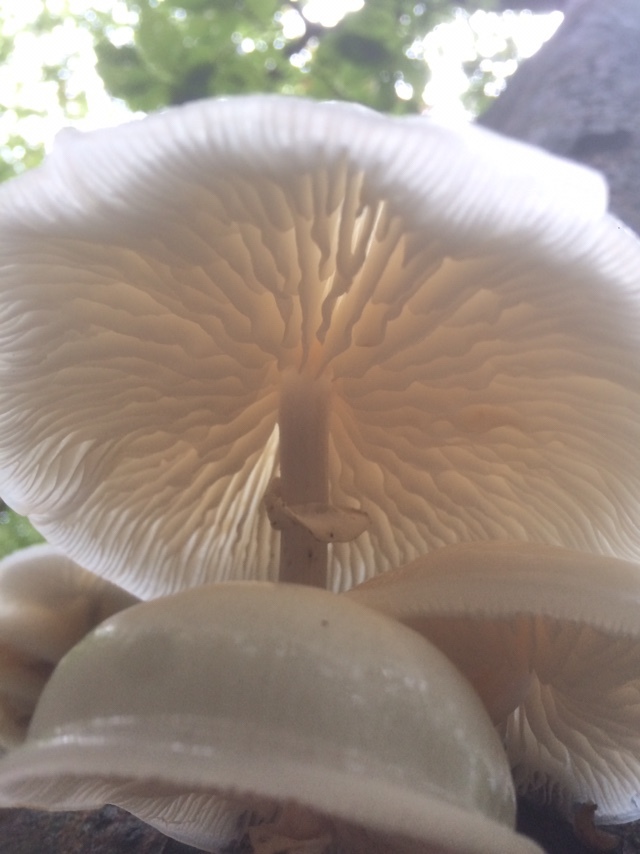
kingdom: Fungi
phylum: Basidiomycota
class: Agaricomycetes
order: Agaricales
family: Physalacriaceae
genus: Mucidula
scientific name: Mucidula mucida
